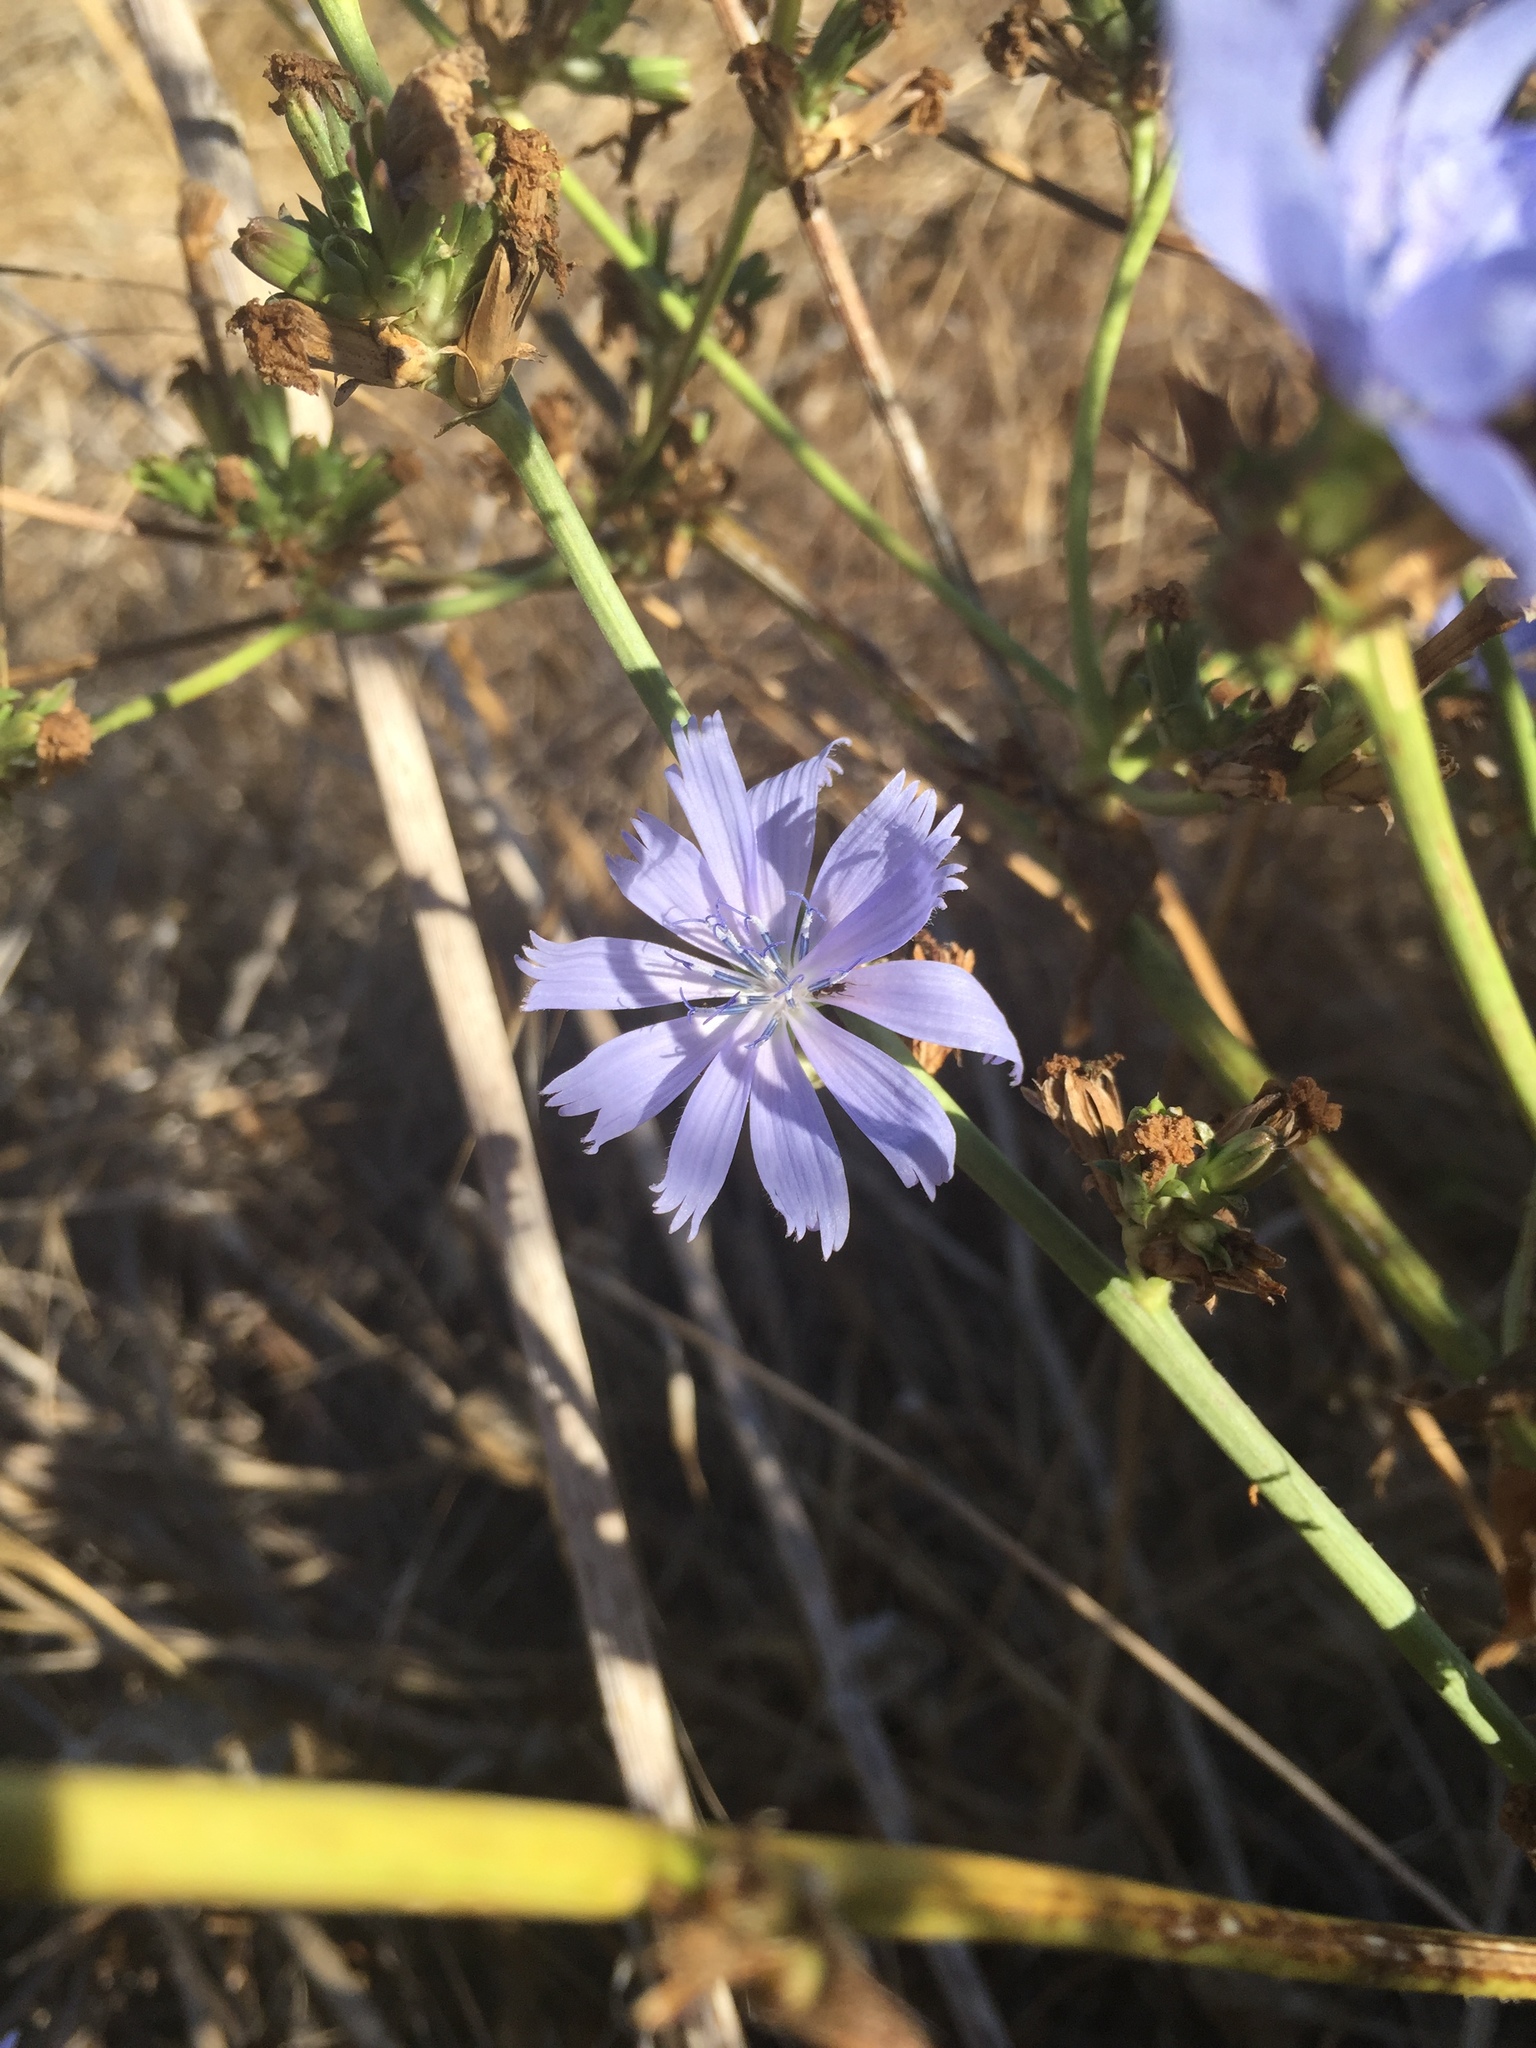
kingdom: Plantae
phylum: Tracheophyta
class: Magnoliopsida
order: Asterales
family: Asteraceae
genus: Cichorium
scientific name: Cichorium intybus
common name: Chicory
